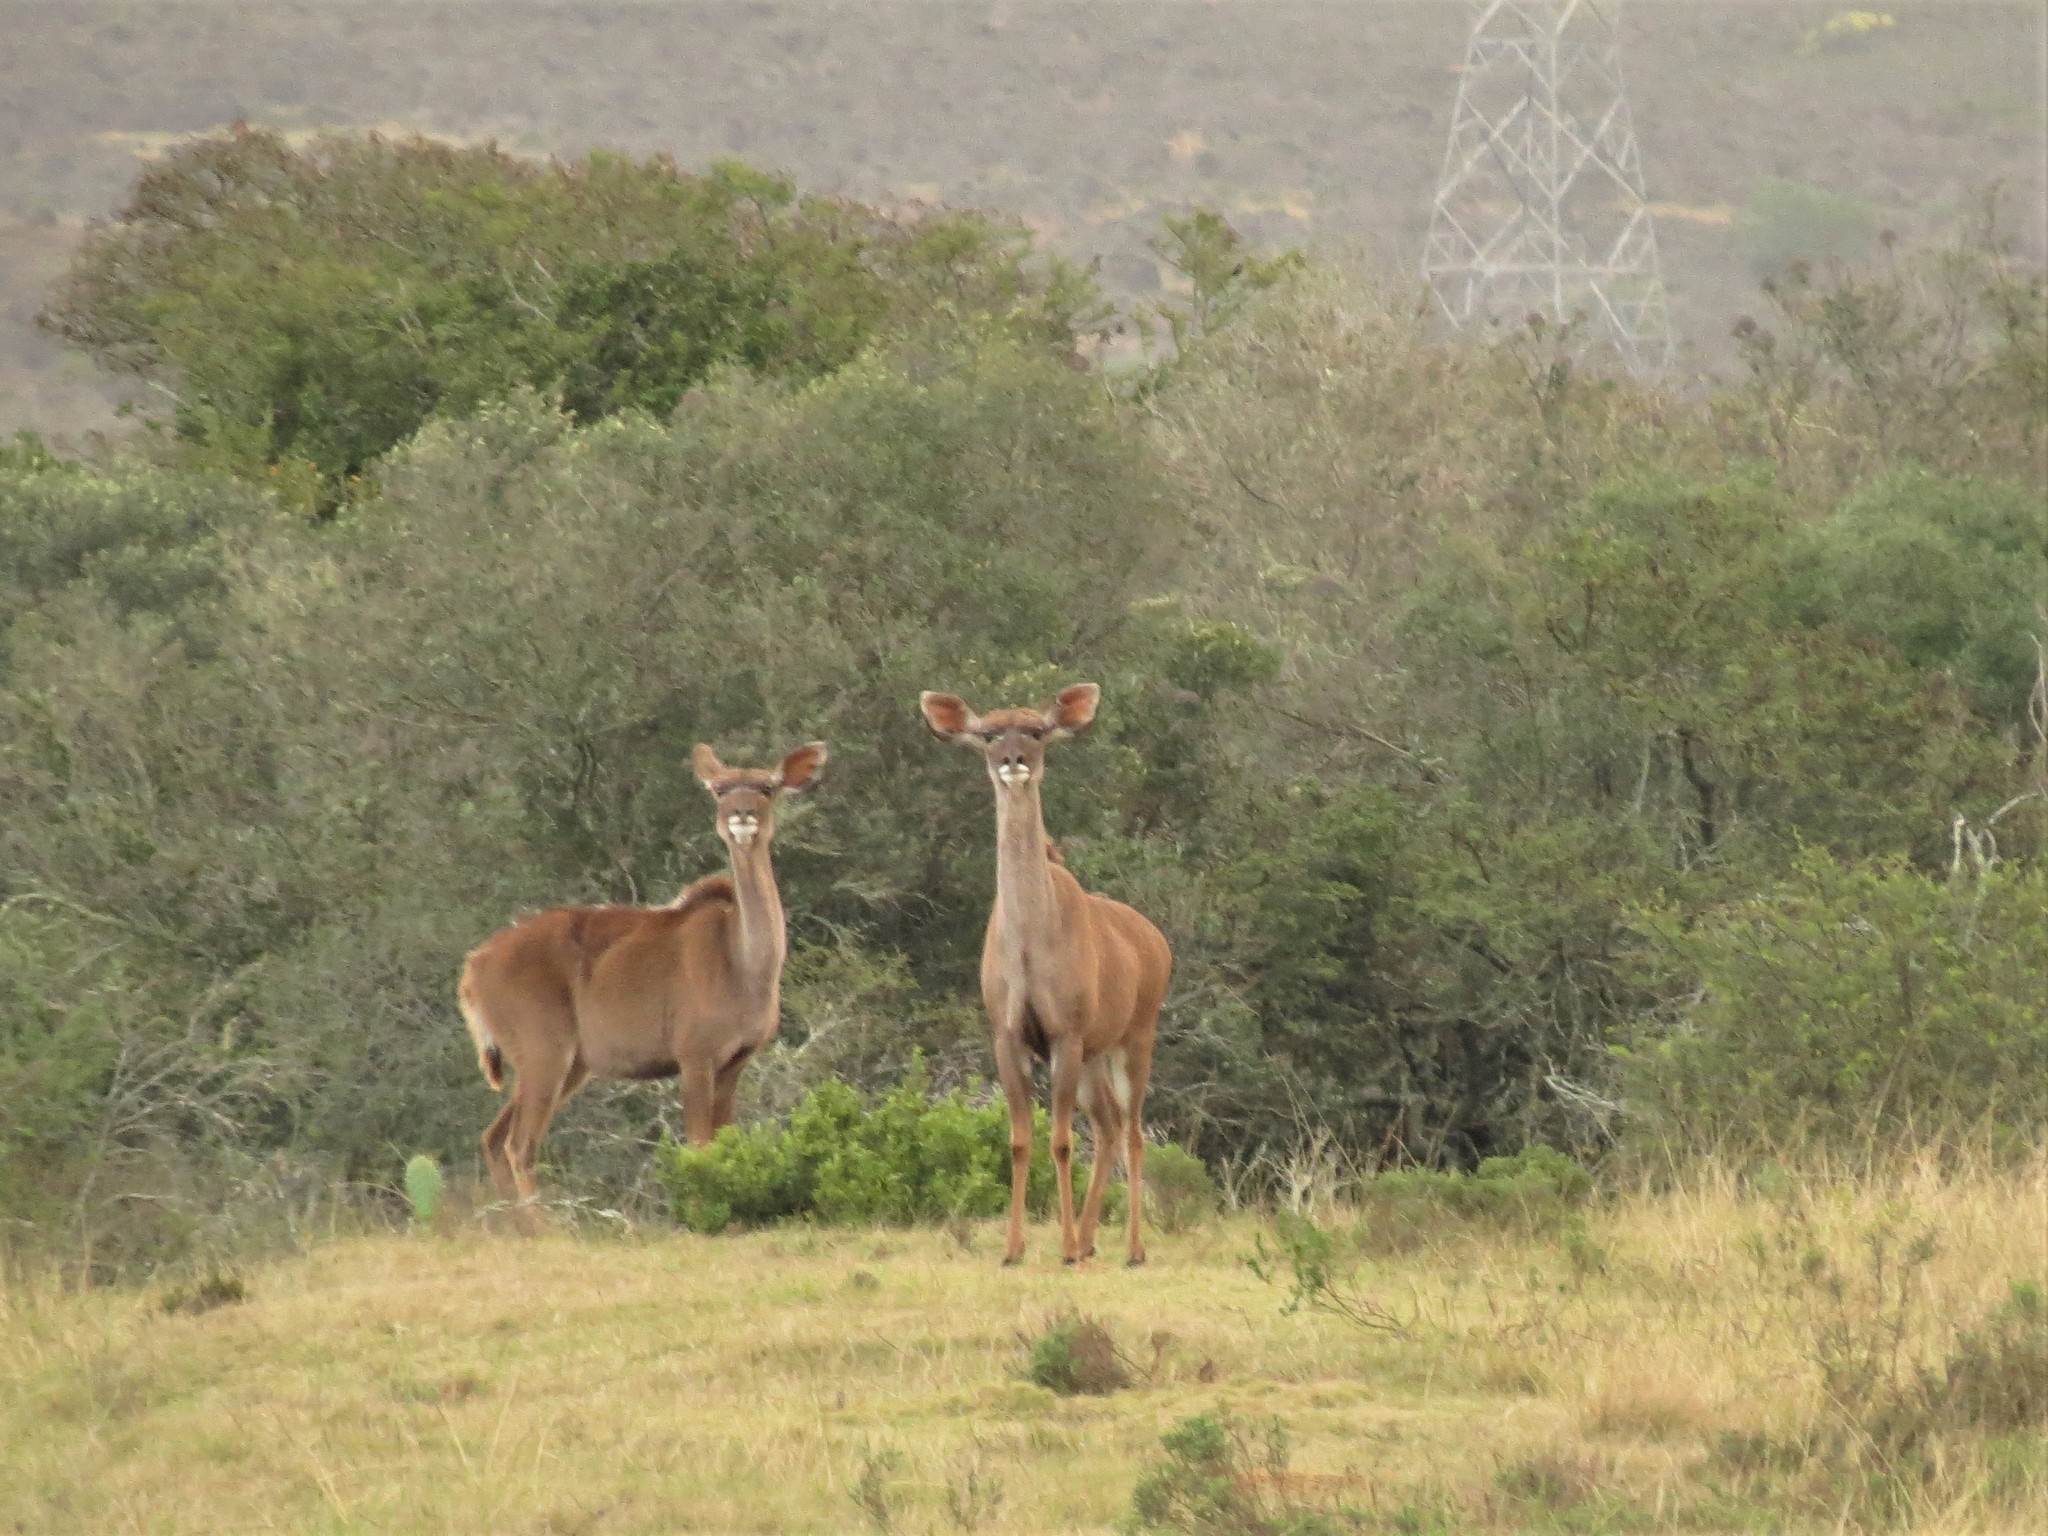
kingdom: Animalia
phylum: Chordata
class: Mammalia
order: Artiodactyla
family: Bovidae
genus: Tragelaphus
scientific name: Tragelaphus strepsiceros
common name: Greater kudu
